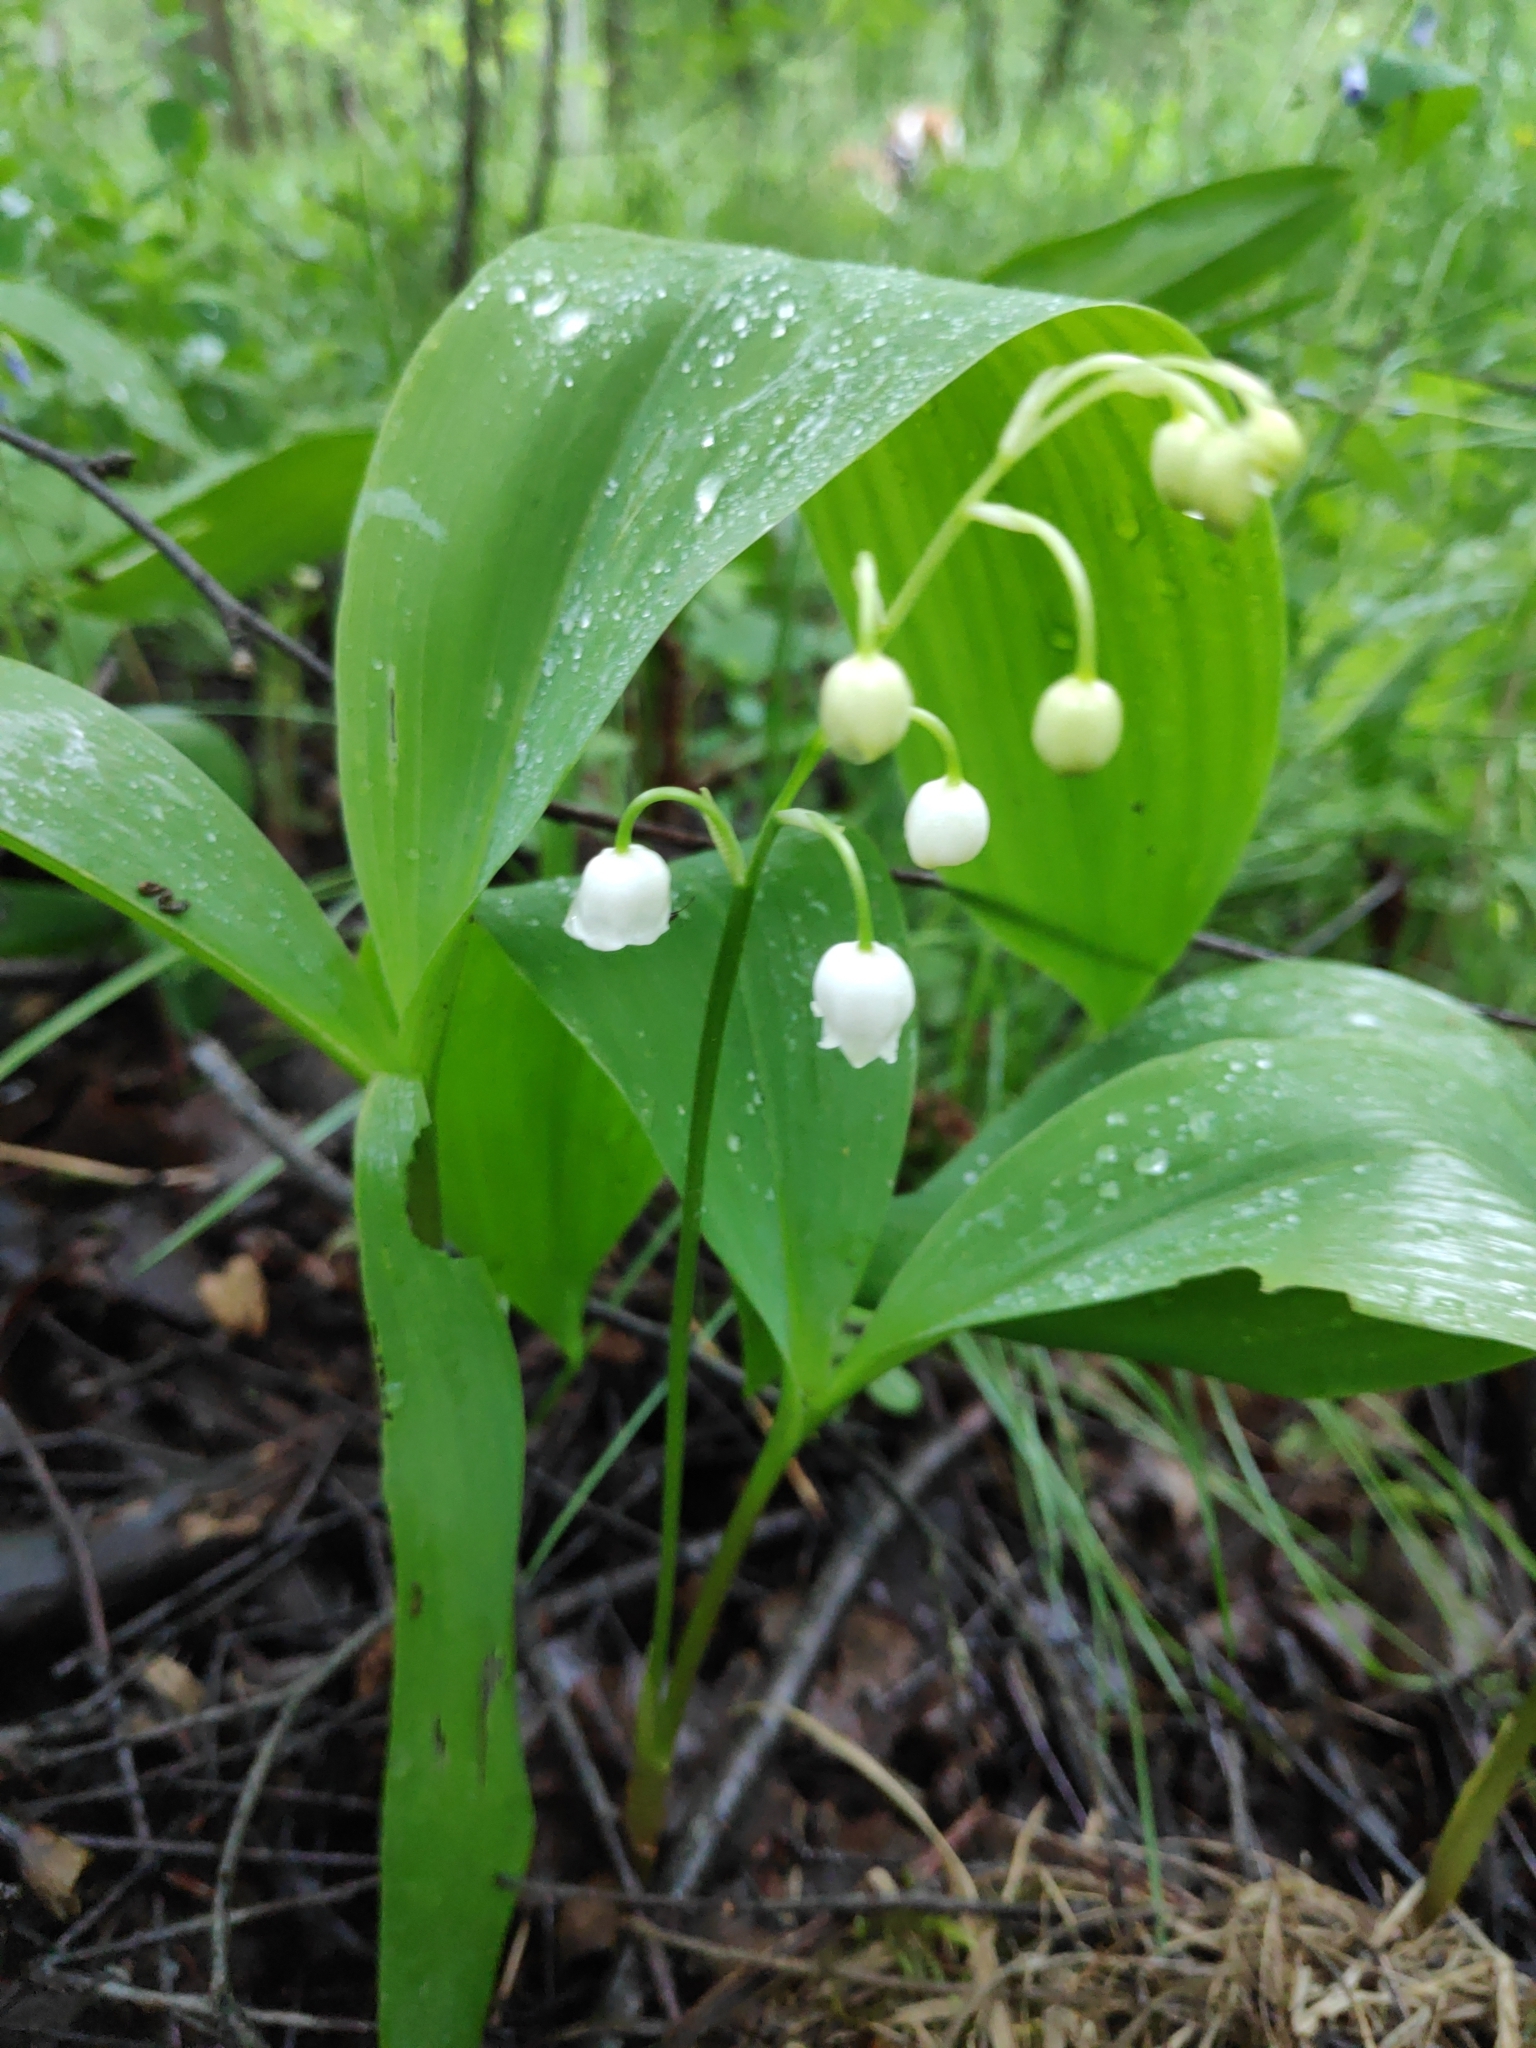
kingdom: Plantae
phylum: Tracheophyta
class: Liliopsida
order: Asparagales
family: Asparagaceae
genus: Convallaria
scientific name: Convallaria majalis
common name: Lily-of-the-valley
